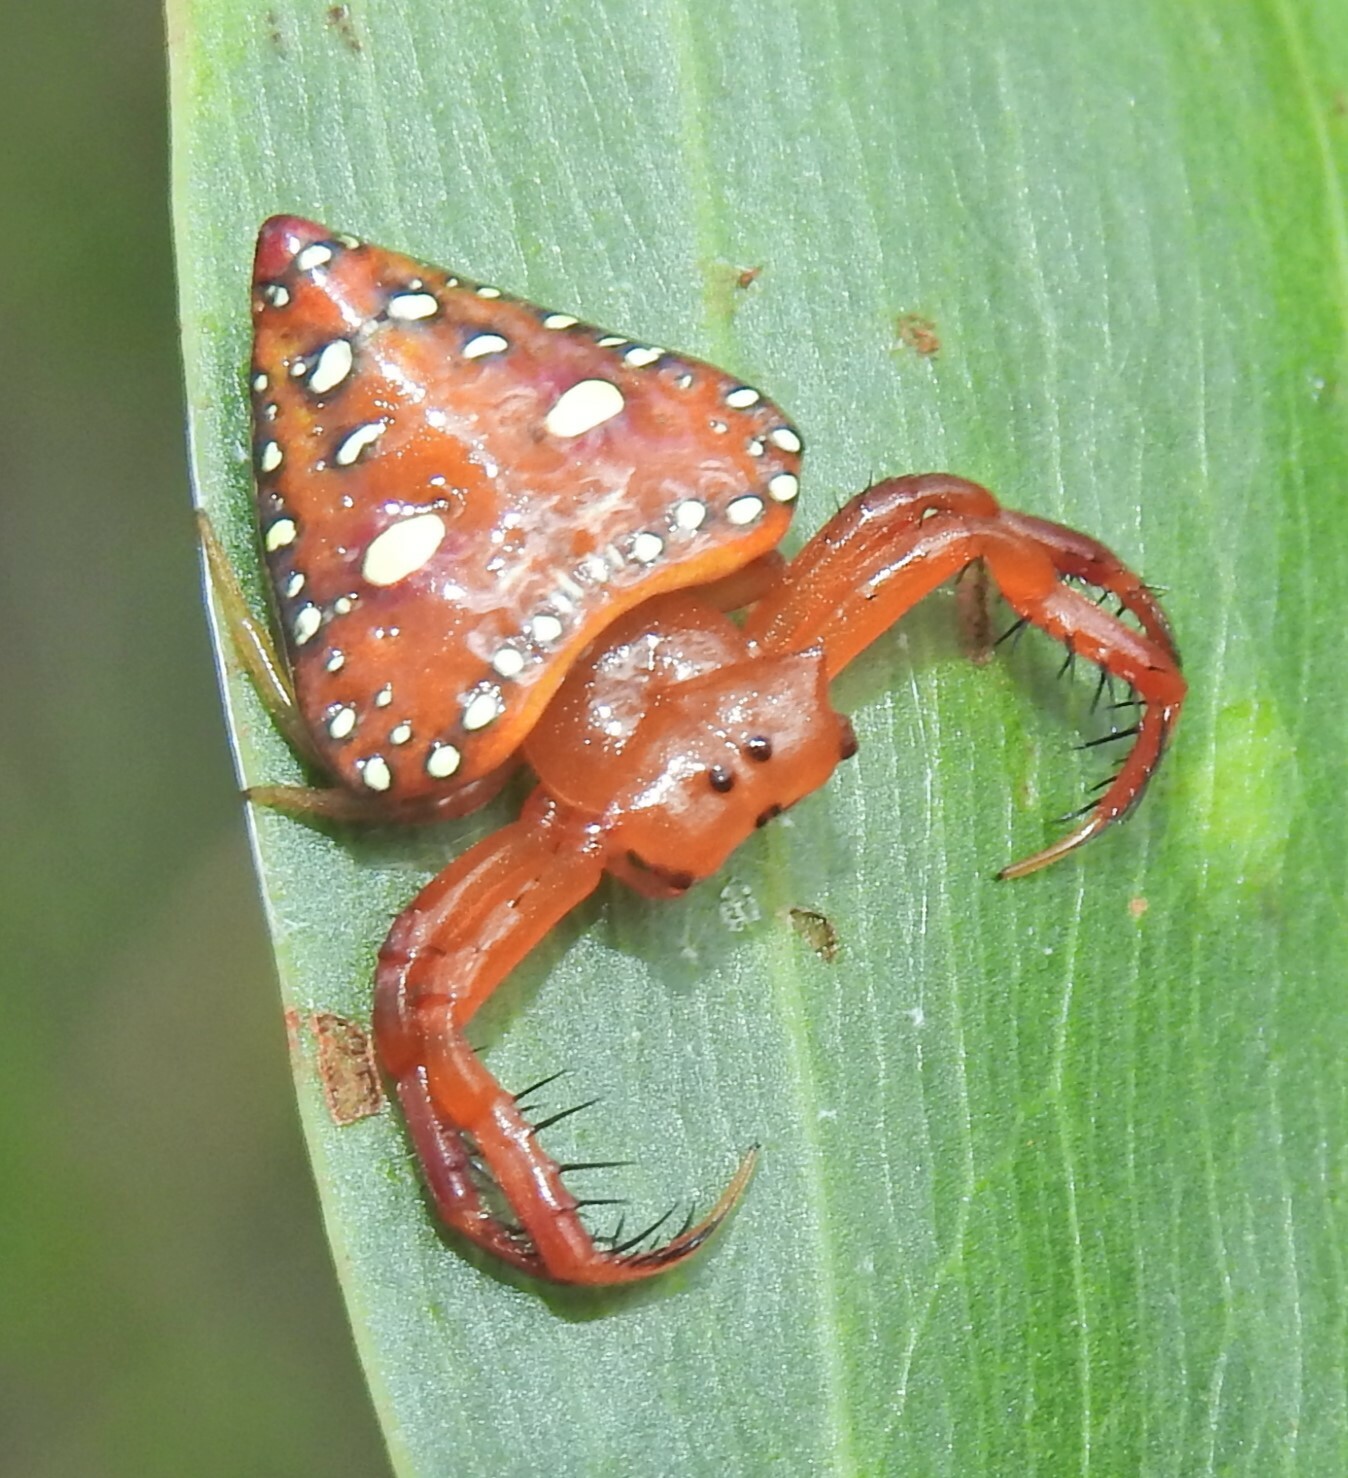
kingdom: Animalia
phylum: Arthropoda
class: Arachnida
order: Araneae
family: Arkyidae
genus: Arkys
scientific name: Arkys lancearius
